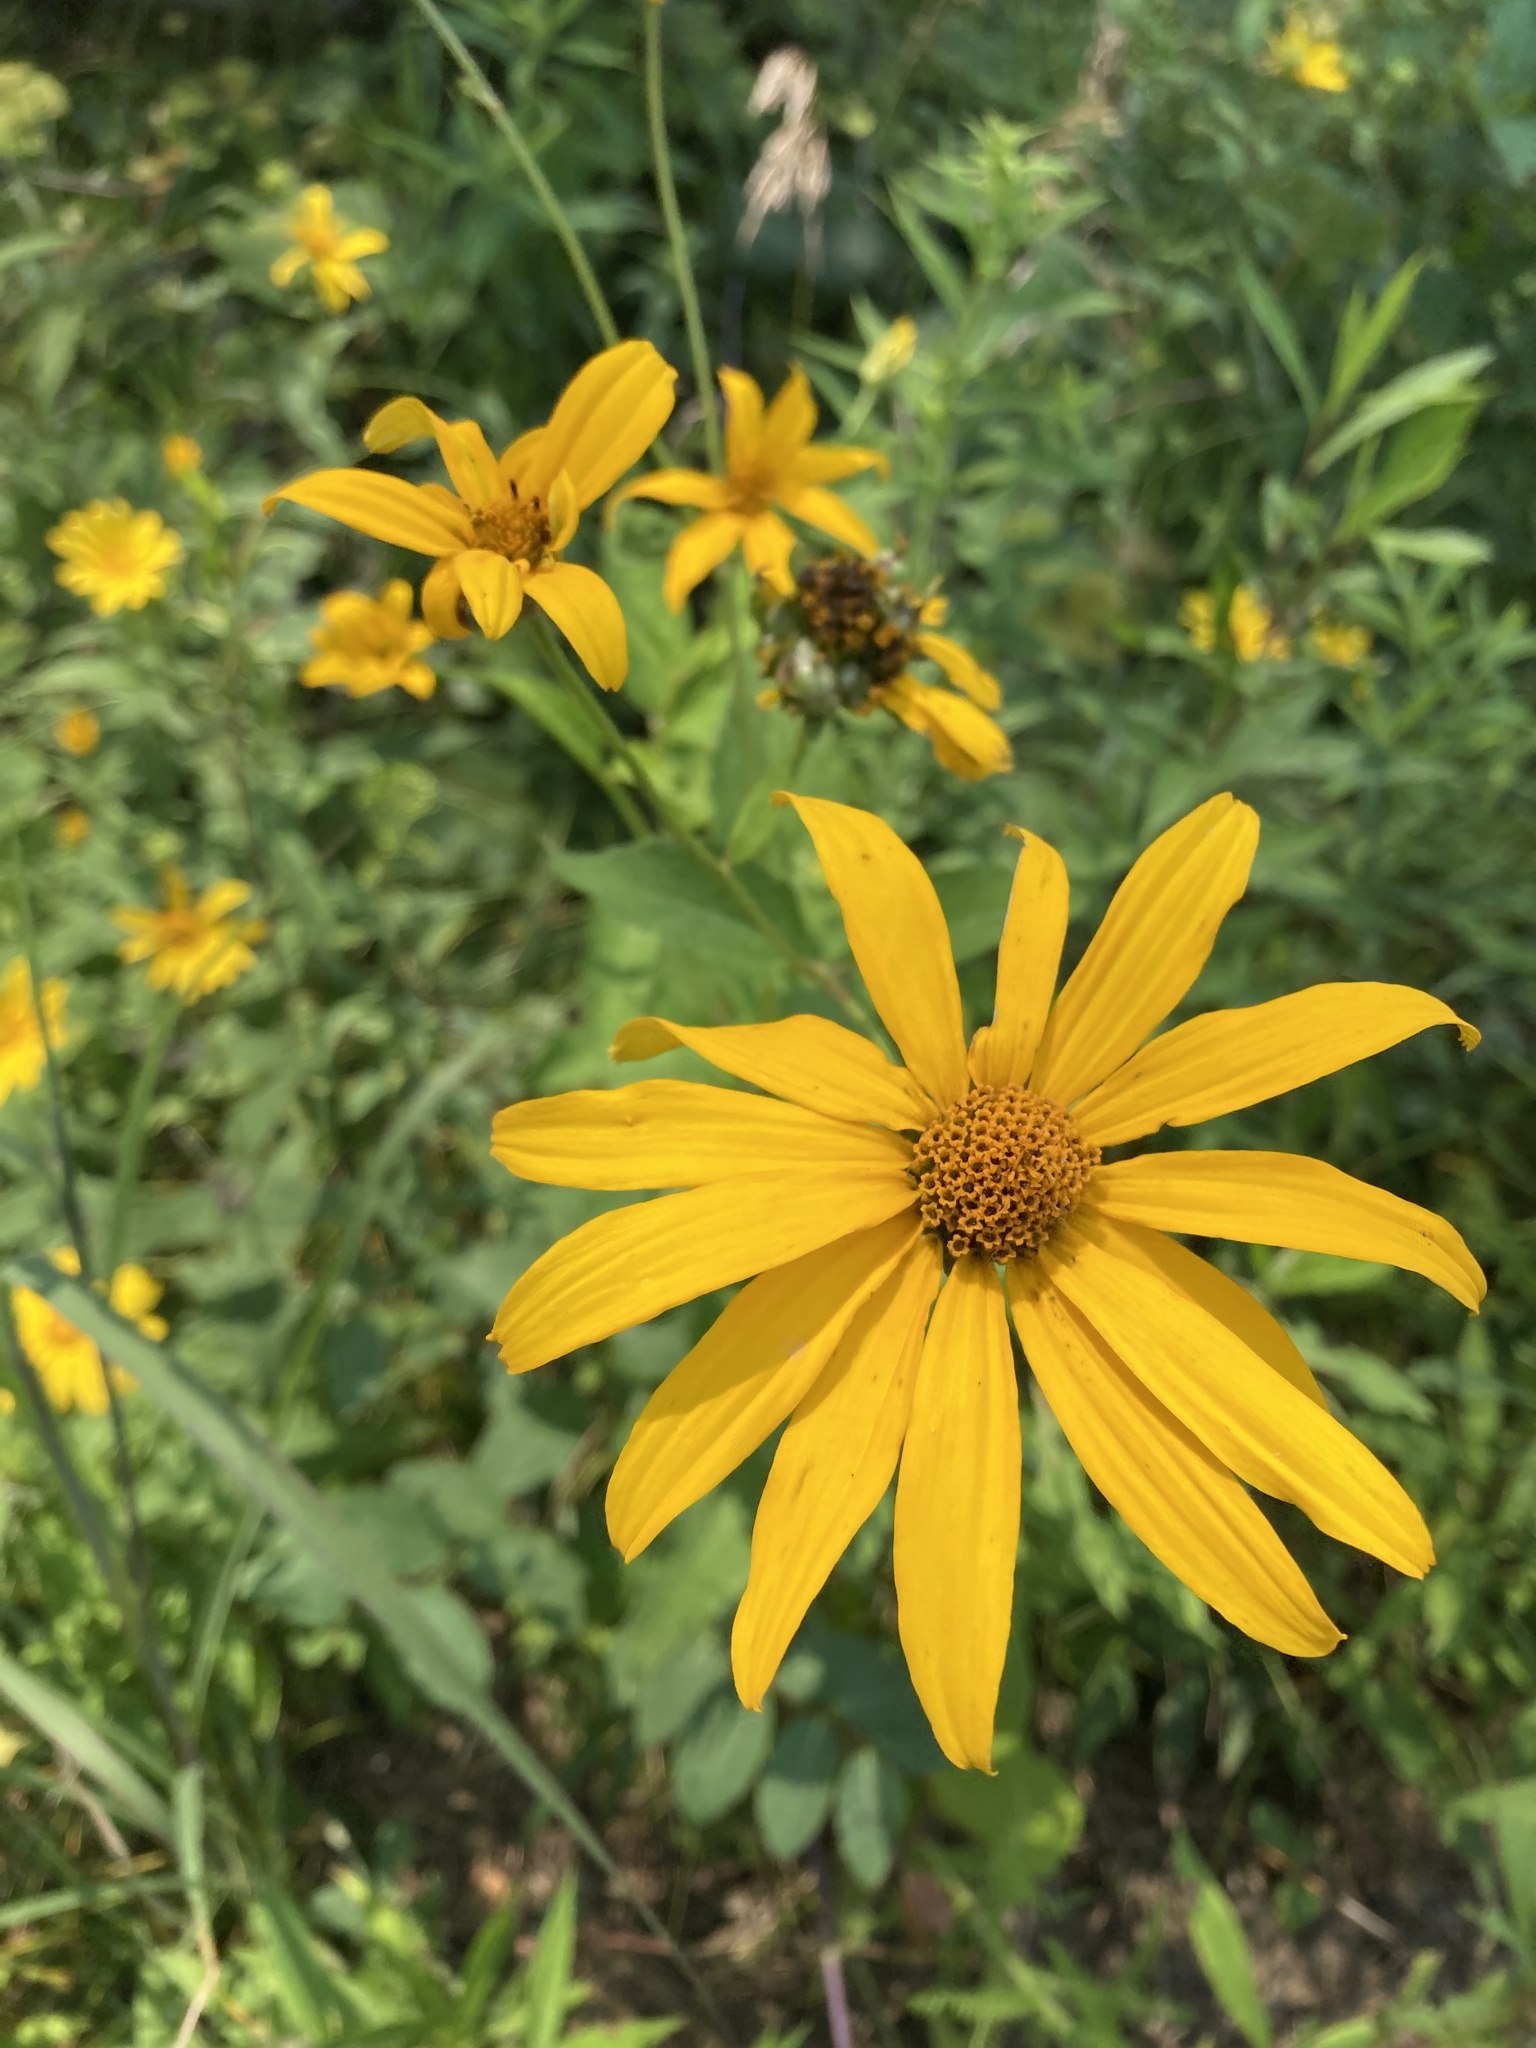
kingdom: Plantae
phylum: Tracheophyta
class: Magnoliopsida
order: Asterales
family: Asteraceae
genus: Helianthus
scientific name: Helianthus strumosus
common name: Pale-leaved sunflower
